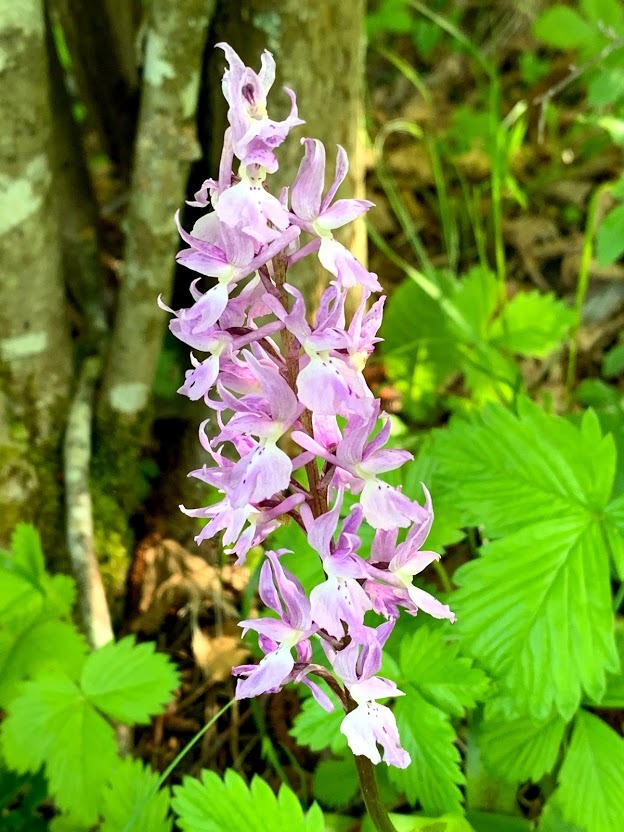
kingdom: Plantae
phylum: Tracheophyta
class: Liliopsida
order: Asparagales
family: Orchidaceae
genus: Orchis
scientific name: Orchis mascula
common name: Early-purple orchid
